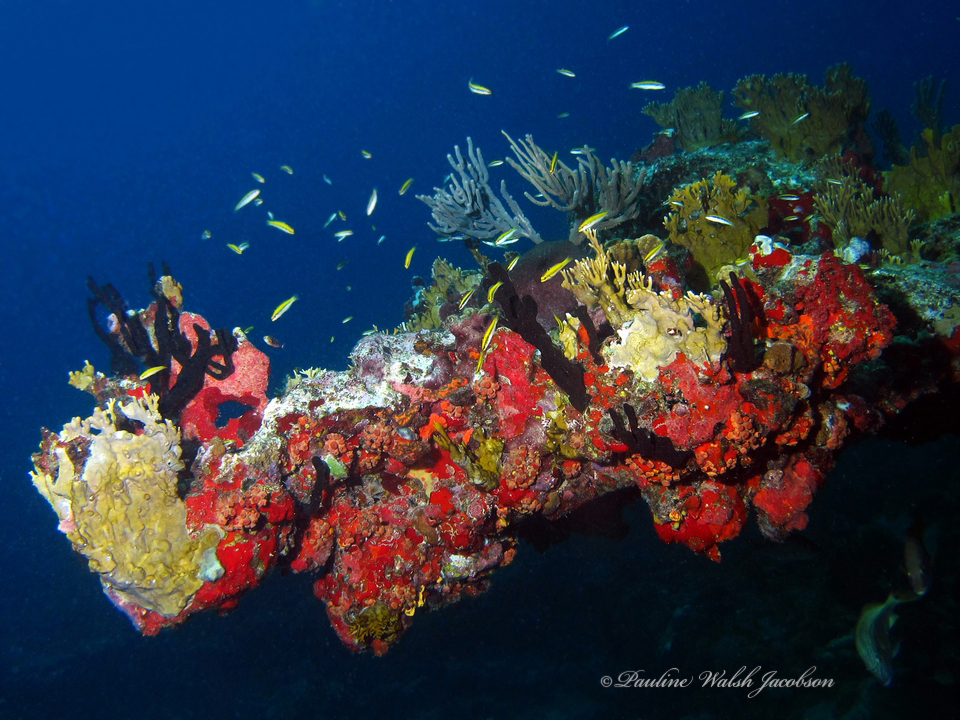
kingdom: Animalia
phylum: Chordata
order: Perciformes
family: Labridae
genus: Thalassoma
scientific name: Thalassoma bifasciatum
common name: Bluehead wrasse
